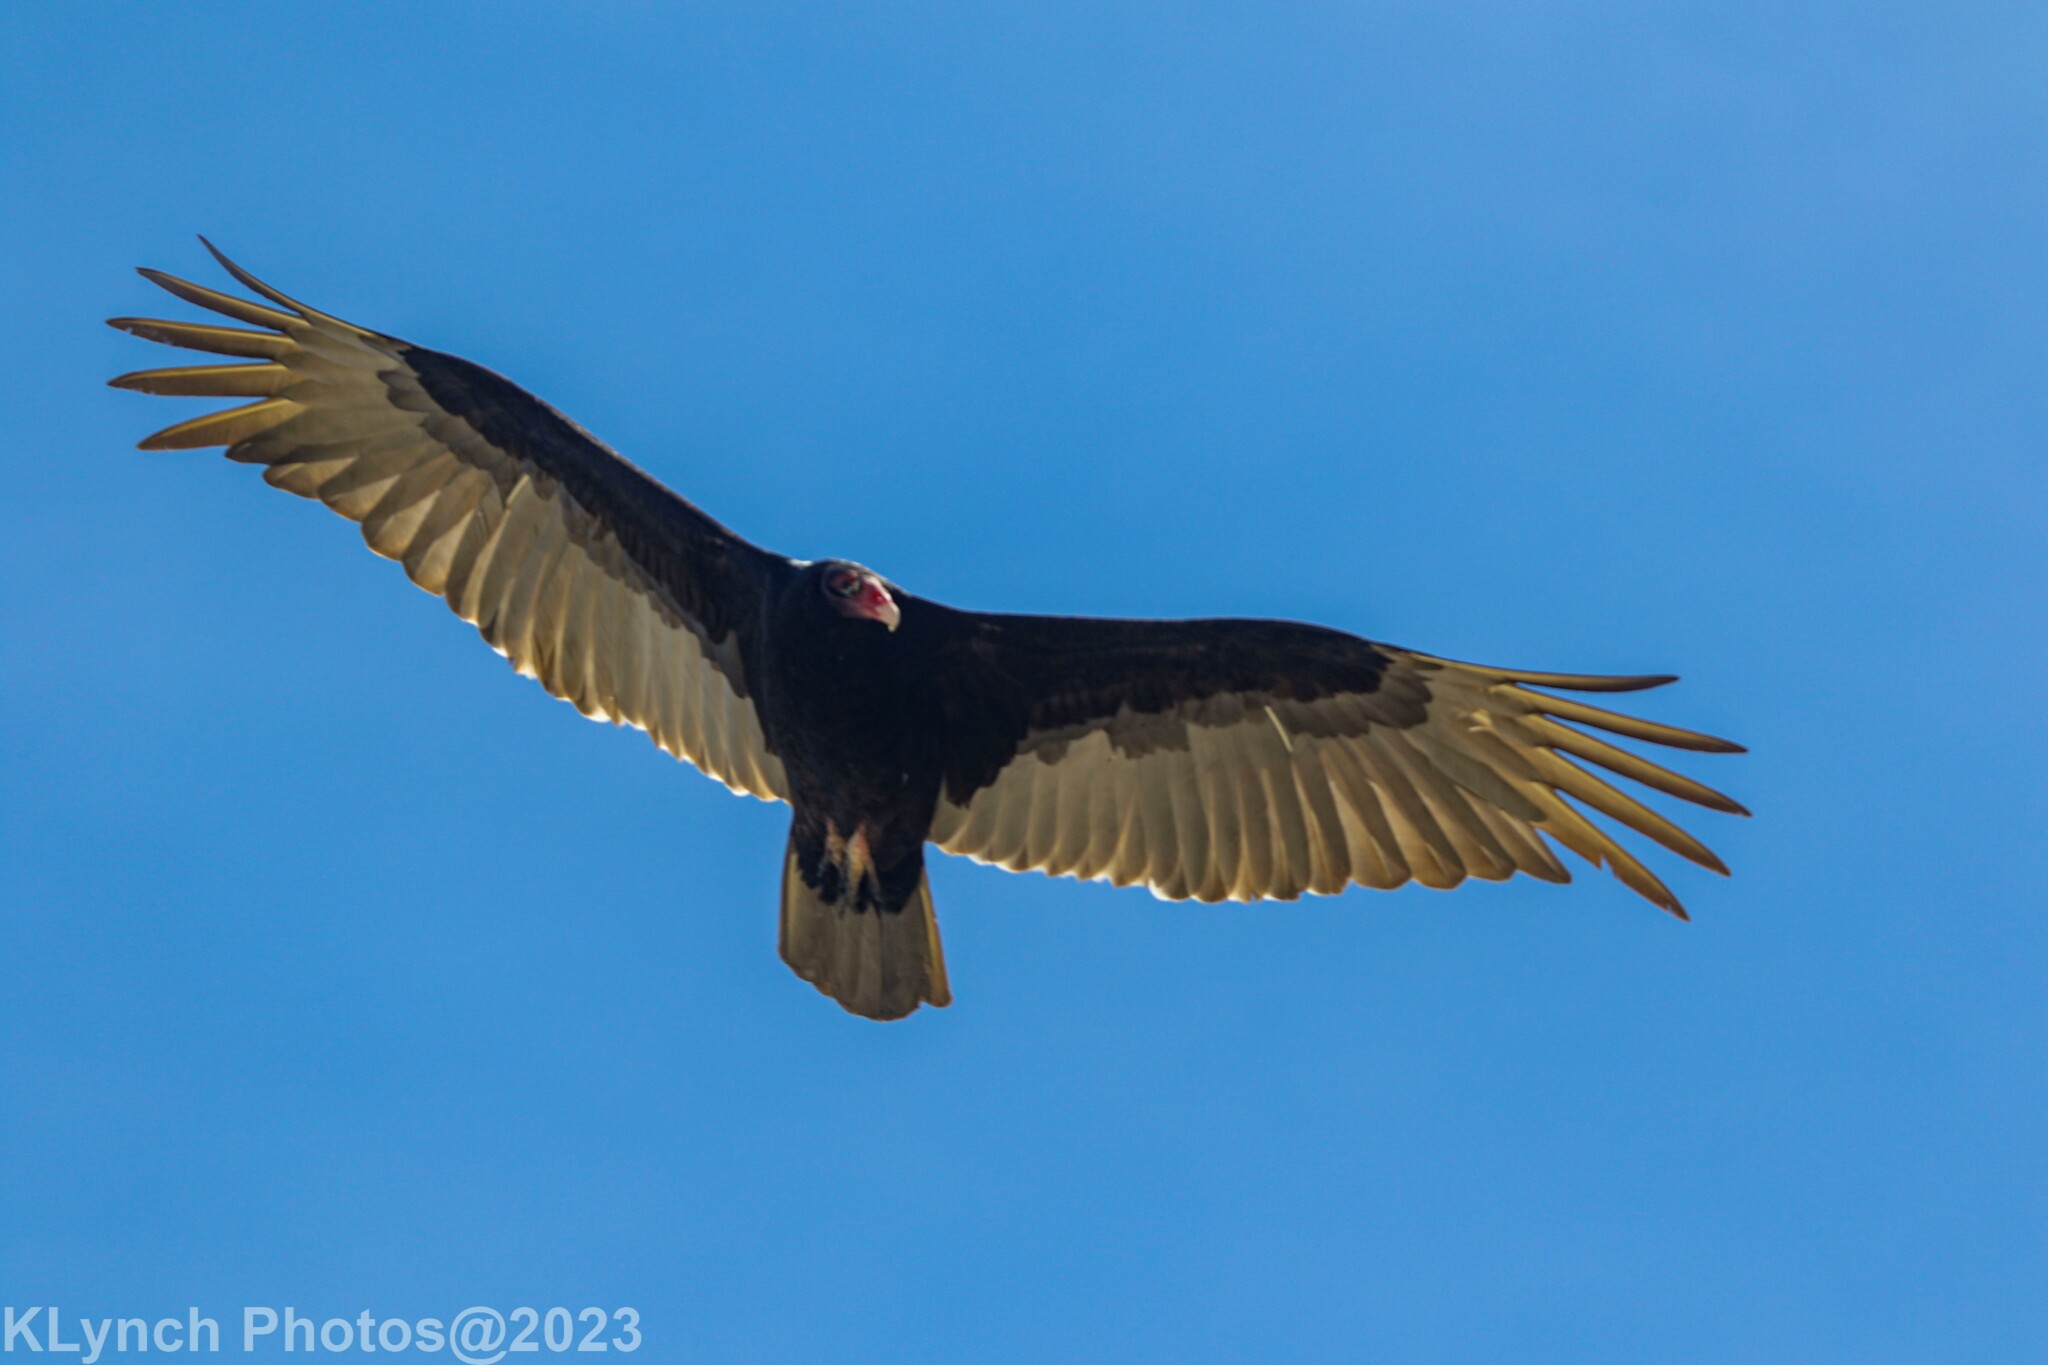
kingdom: Animalia
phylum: Chordata
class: Aves
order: Accipitriformes
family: Cathartidae
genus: Cathartes
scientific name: Cathartes aura
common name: Turkey vulture
